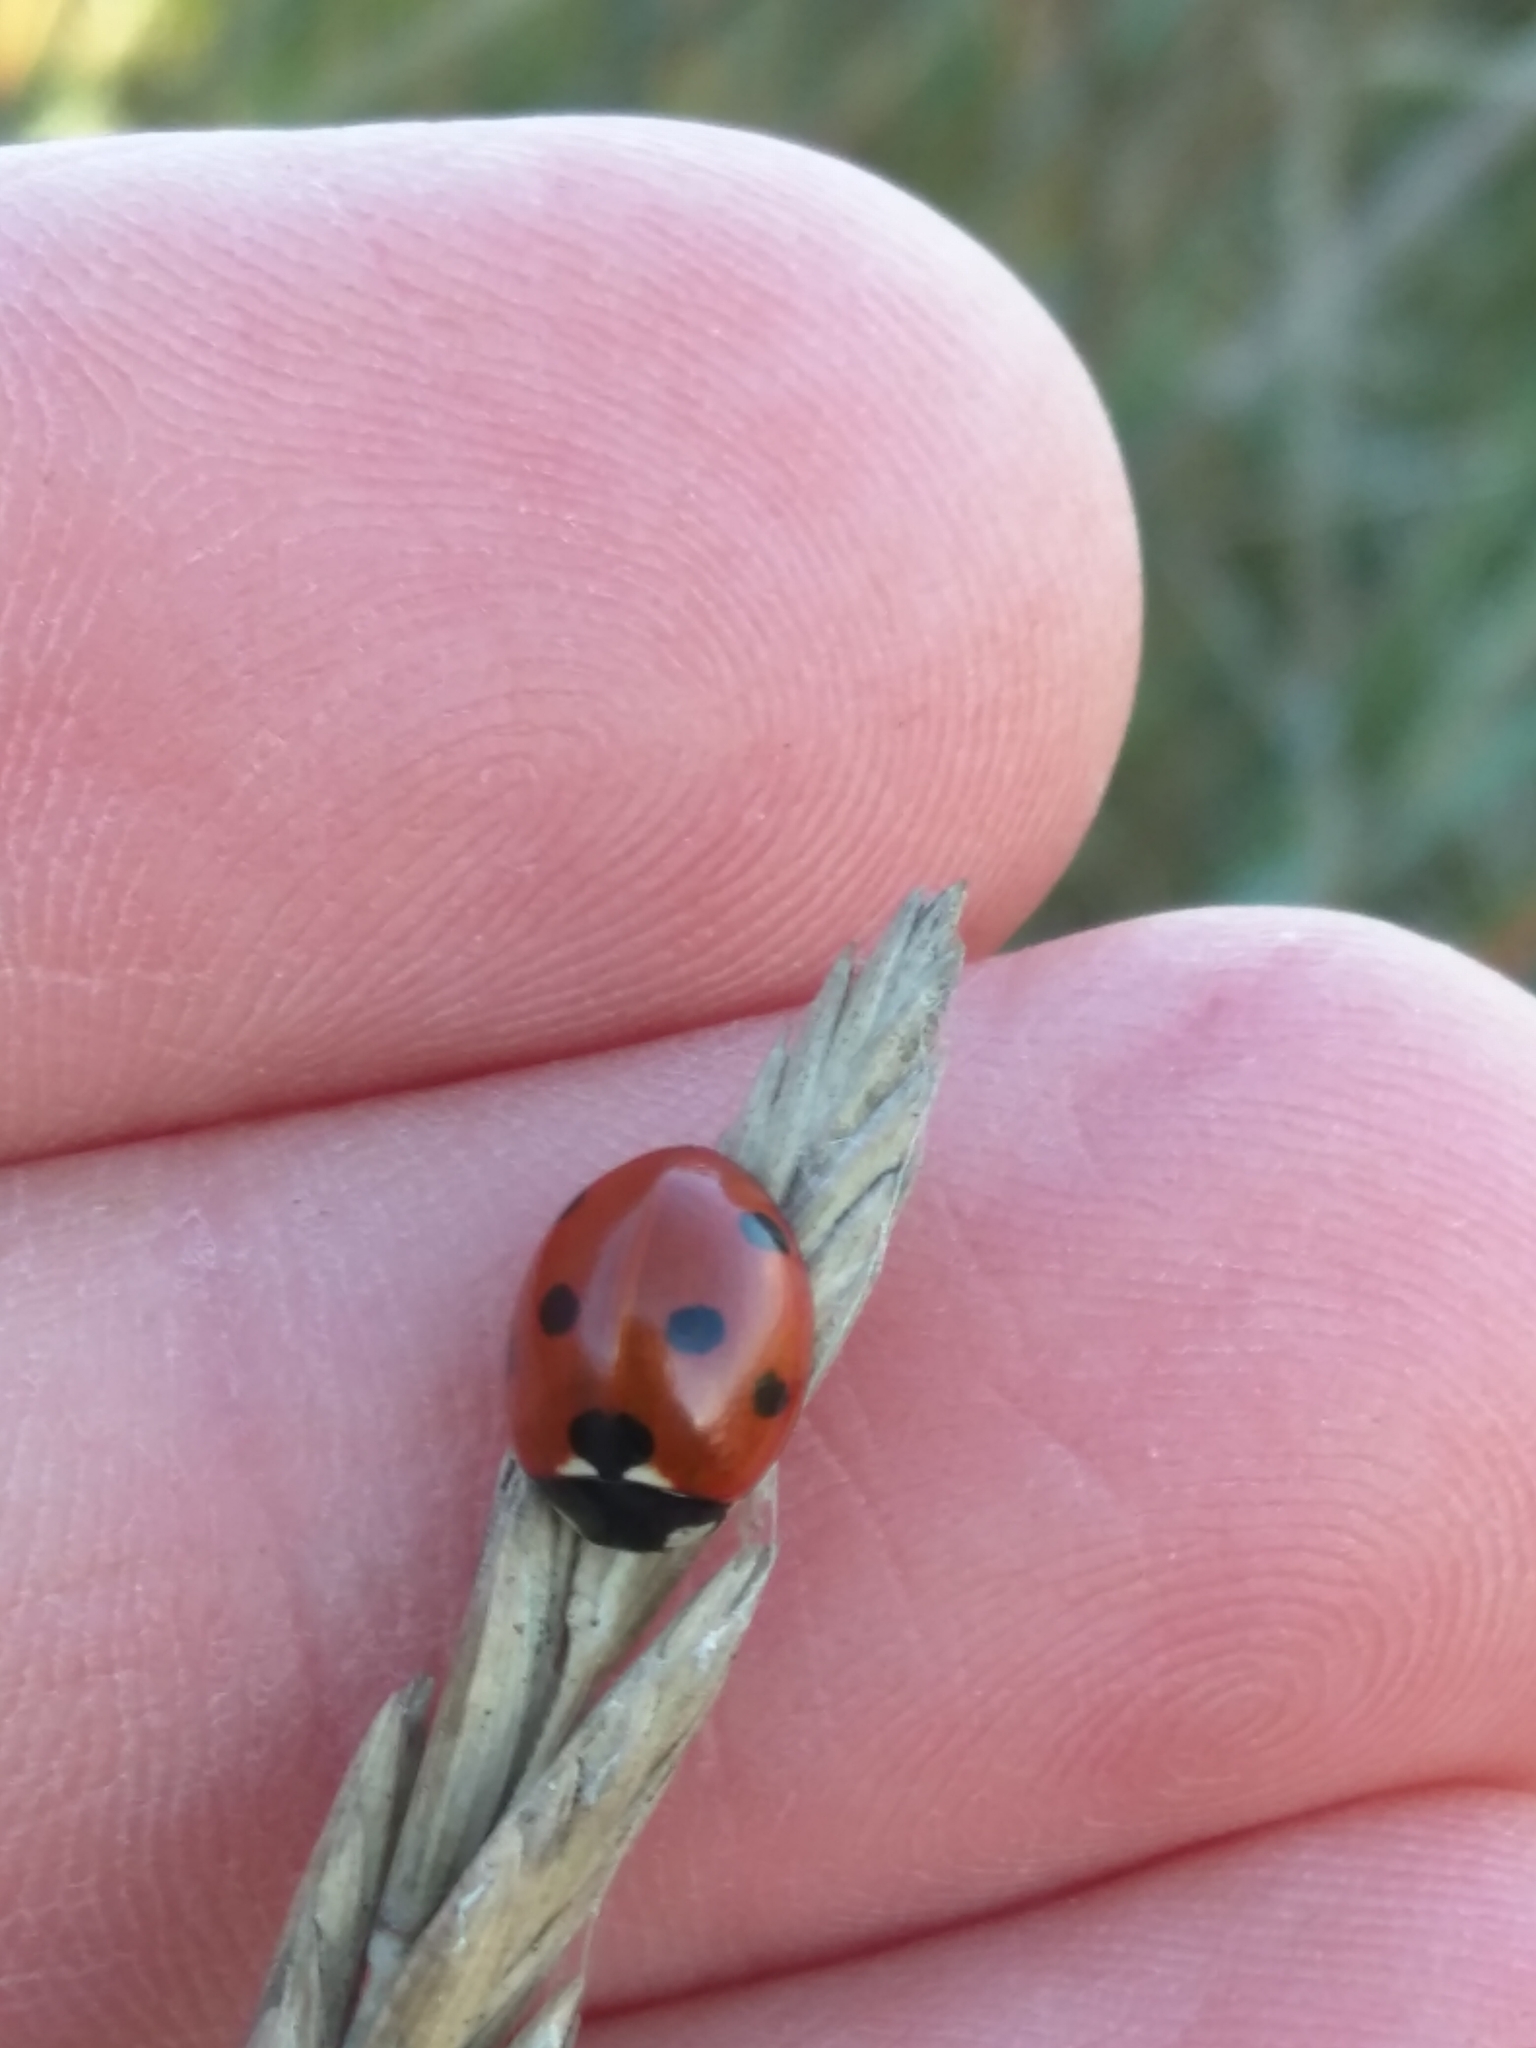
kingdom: Animalia
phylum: Arthropoda
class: Insecta
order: Coleoptera
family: Coccinellidae
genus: Coccinella
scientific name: Coccinella septempunctata
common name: Sevenspotted lady beetle
